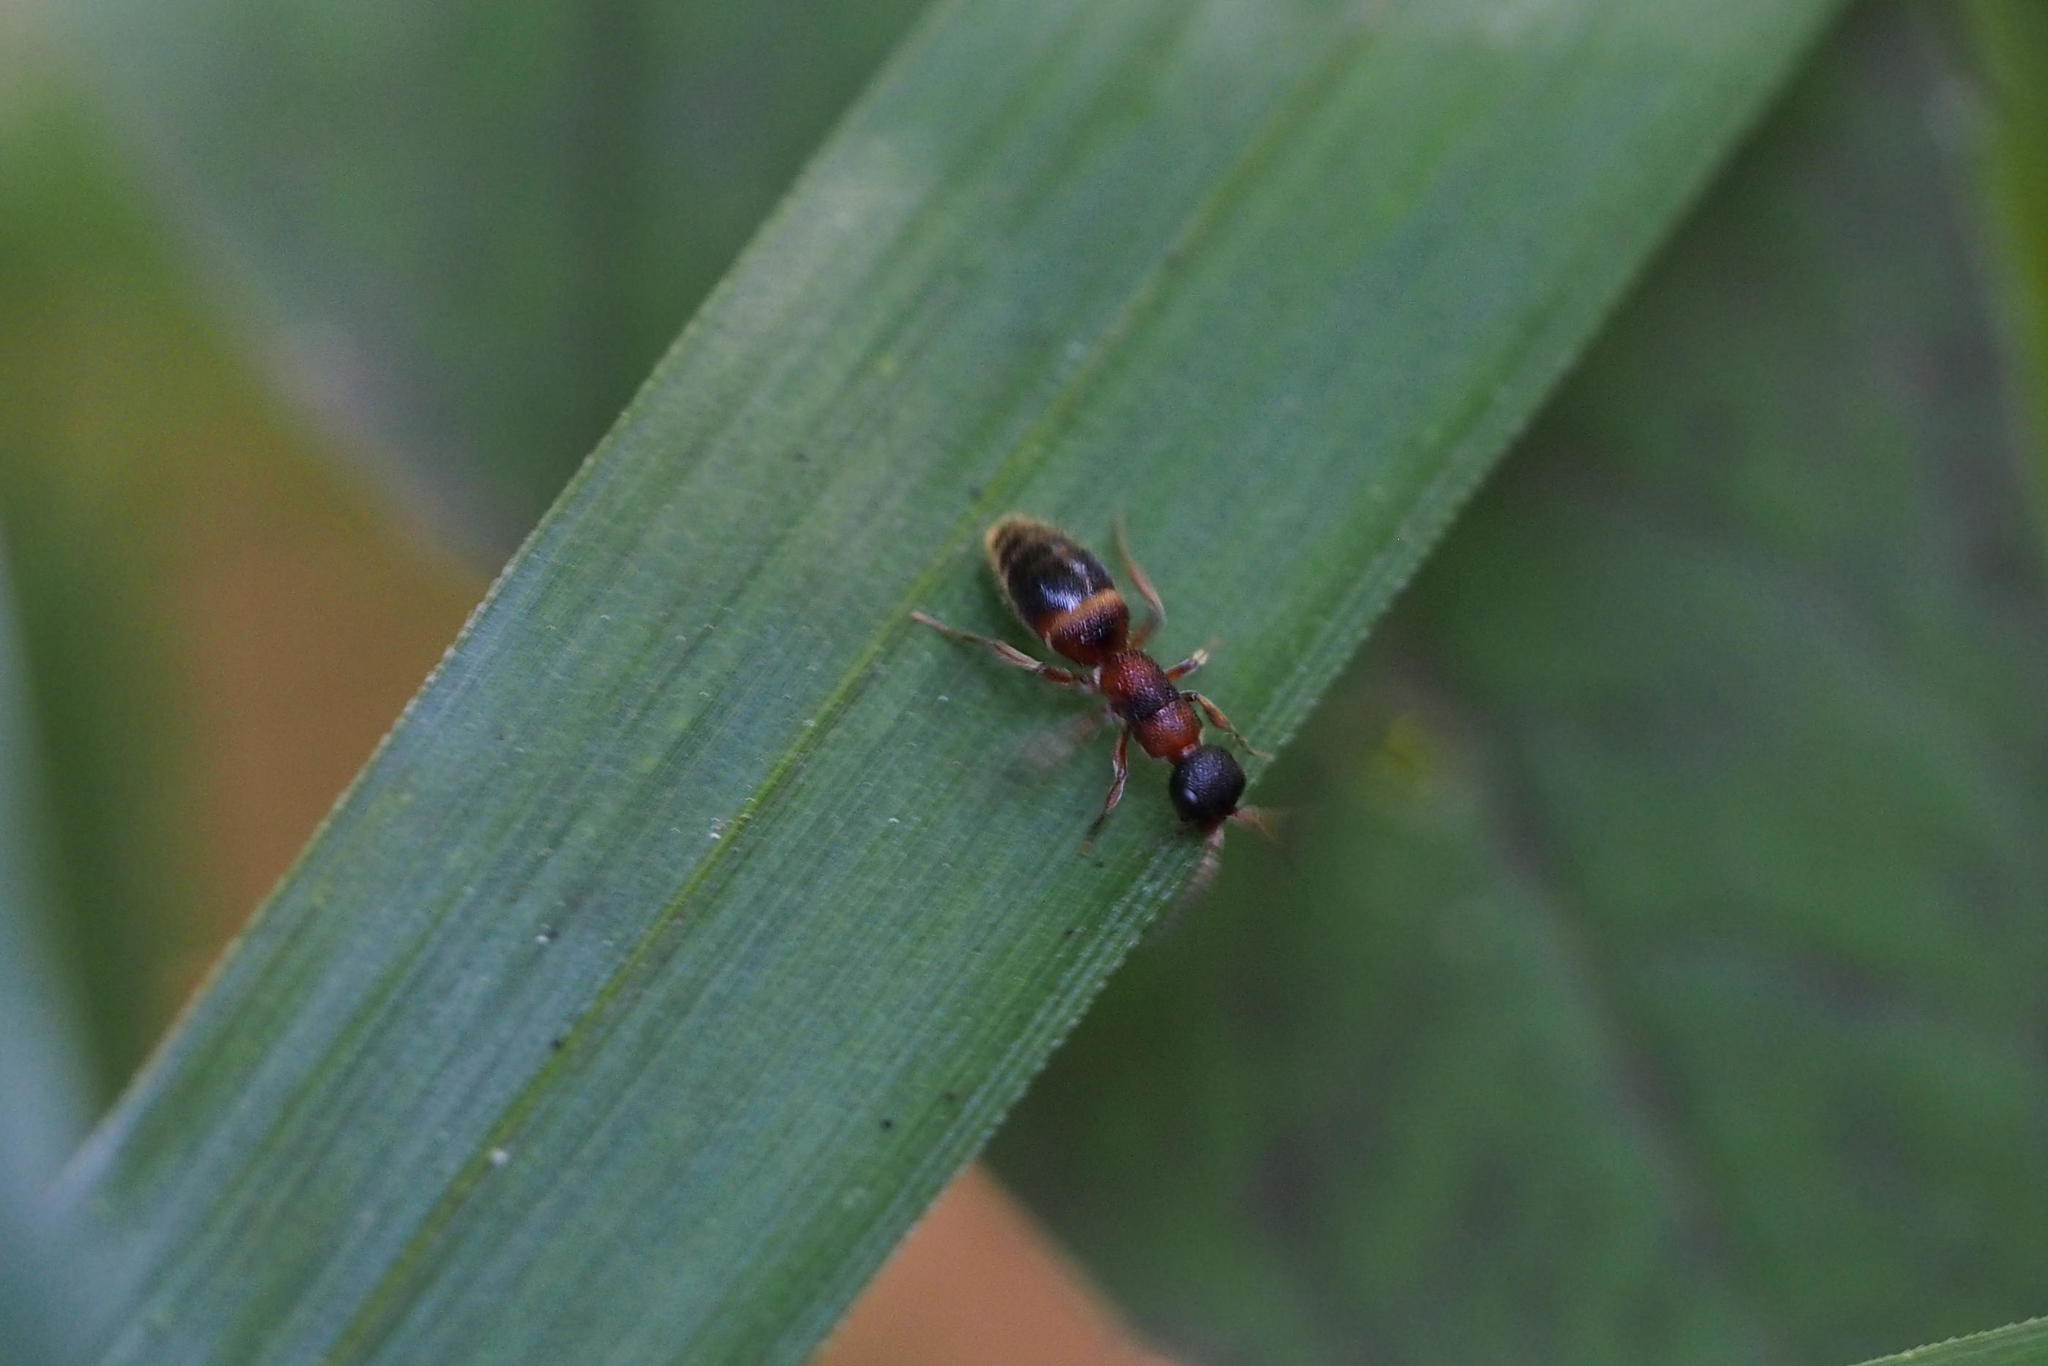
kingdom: Animalia
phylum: Arthropoda
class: Insecta
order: Hymenoptera
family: Mutillidae
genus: Myrmosa
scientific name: Myrmosa
